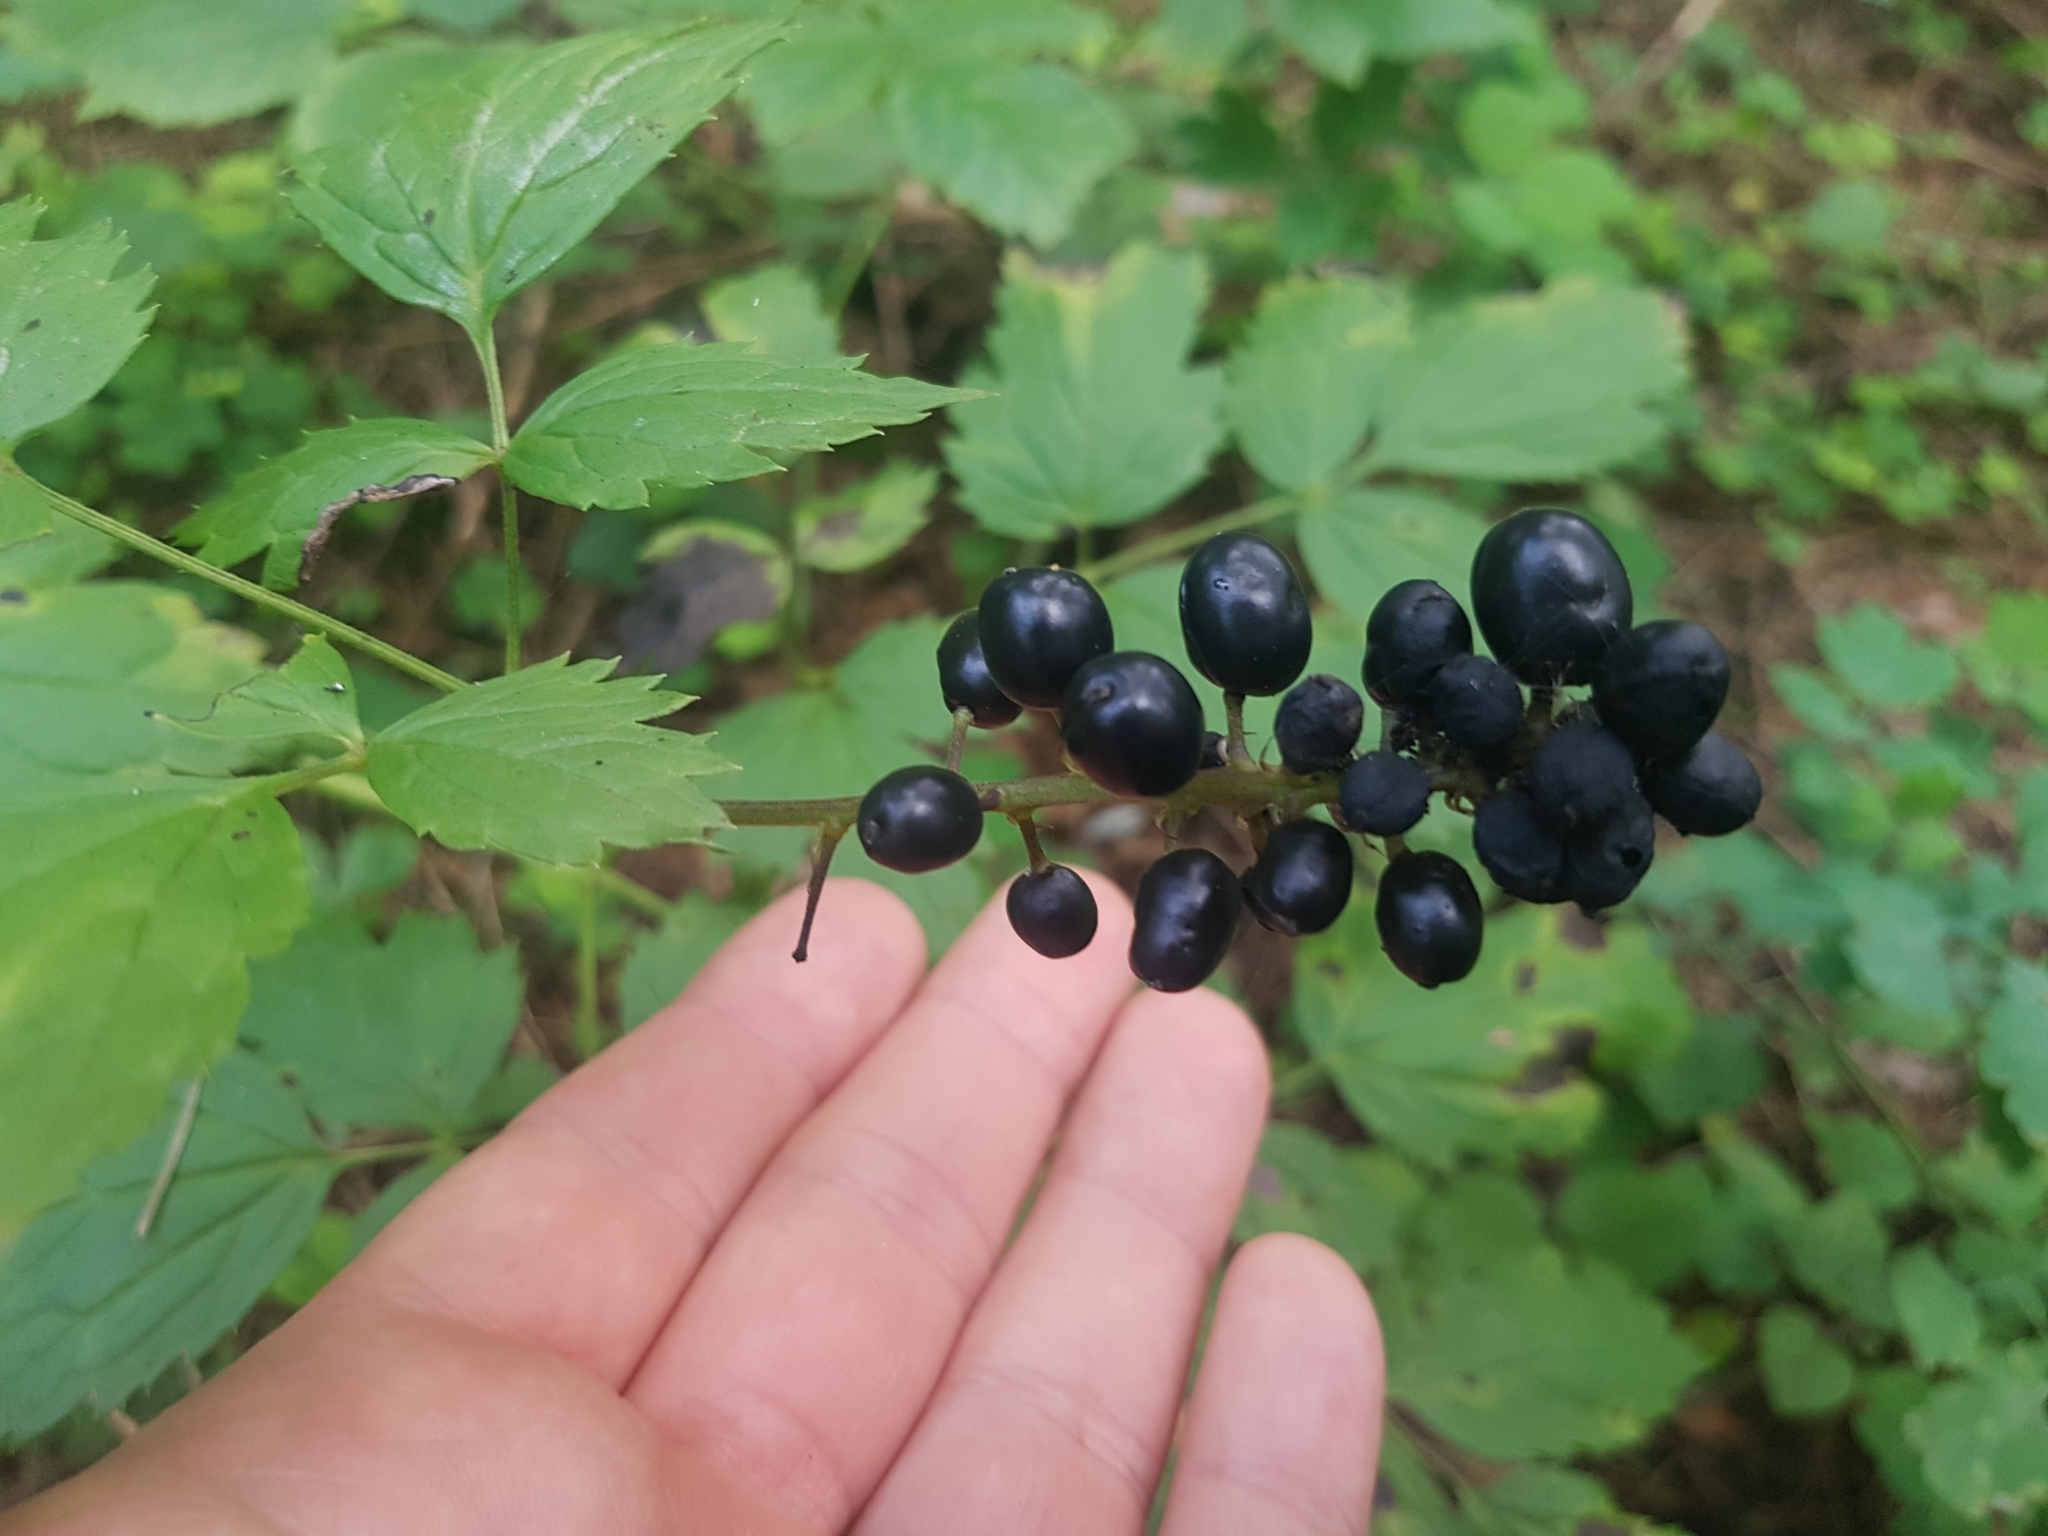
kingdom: Plantae
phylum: Tracheophyta
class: Magnoliopsida
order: Ranunculales
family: Ranunculaceae
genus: Actaea
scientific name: Actaea spicata
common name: Baneberry
